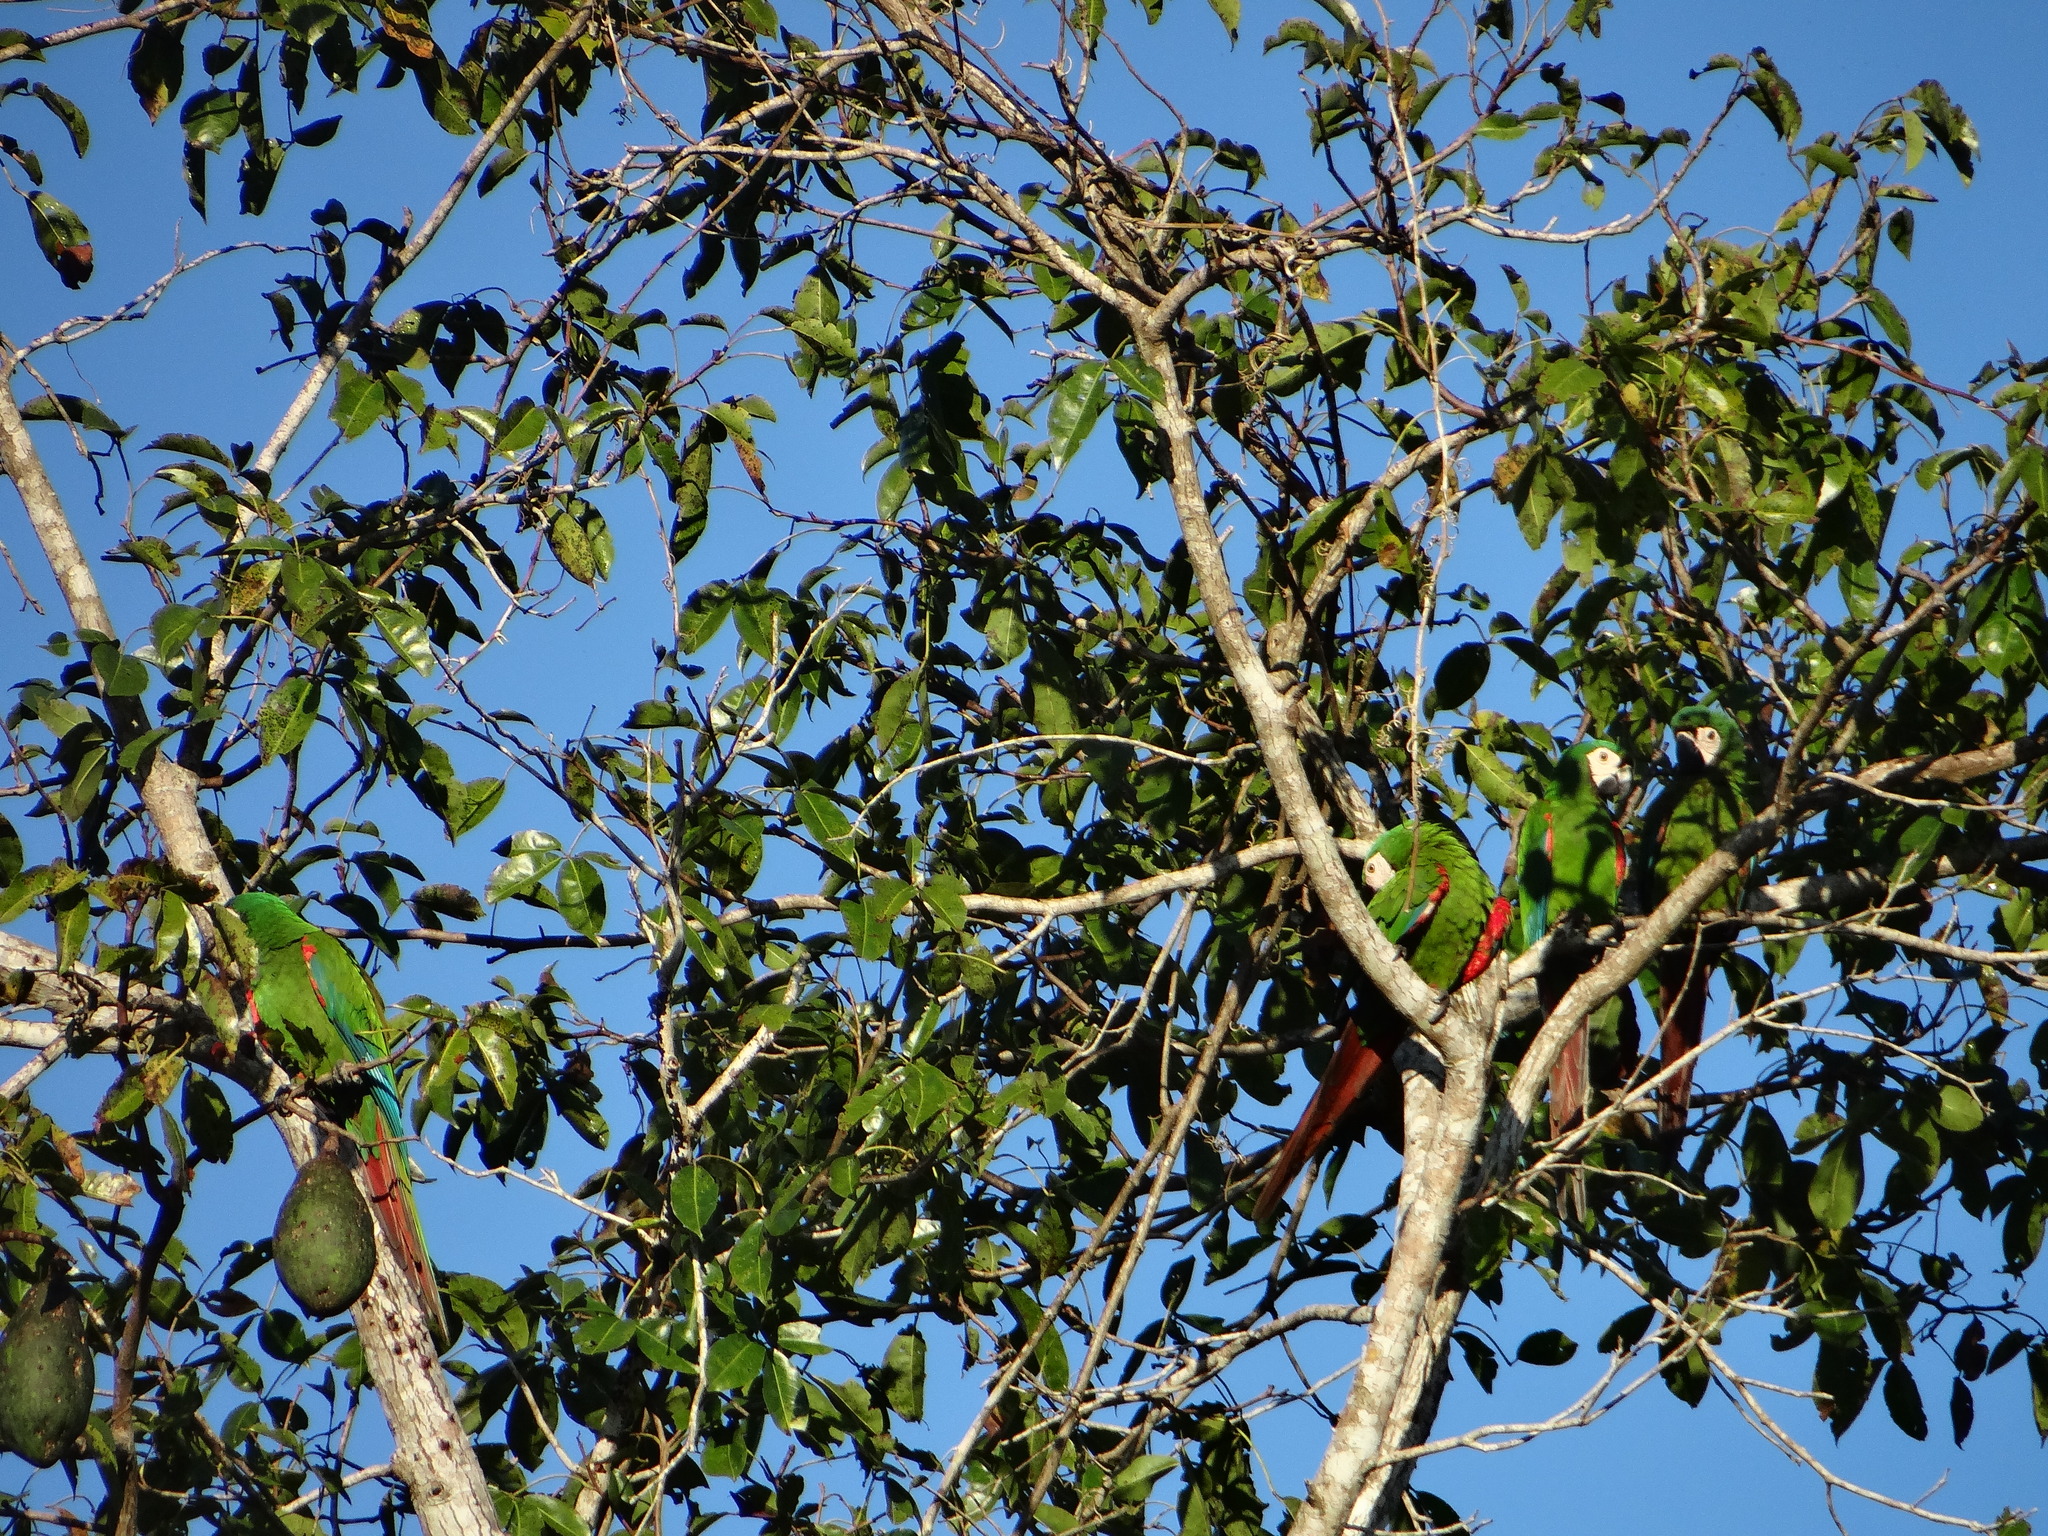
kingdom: Animalia
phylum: Chordata
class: Aves
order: Psittaciformes
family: Psittacidae
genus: Ara
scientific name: Ara severus
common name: Chestnut-fronted macaw
